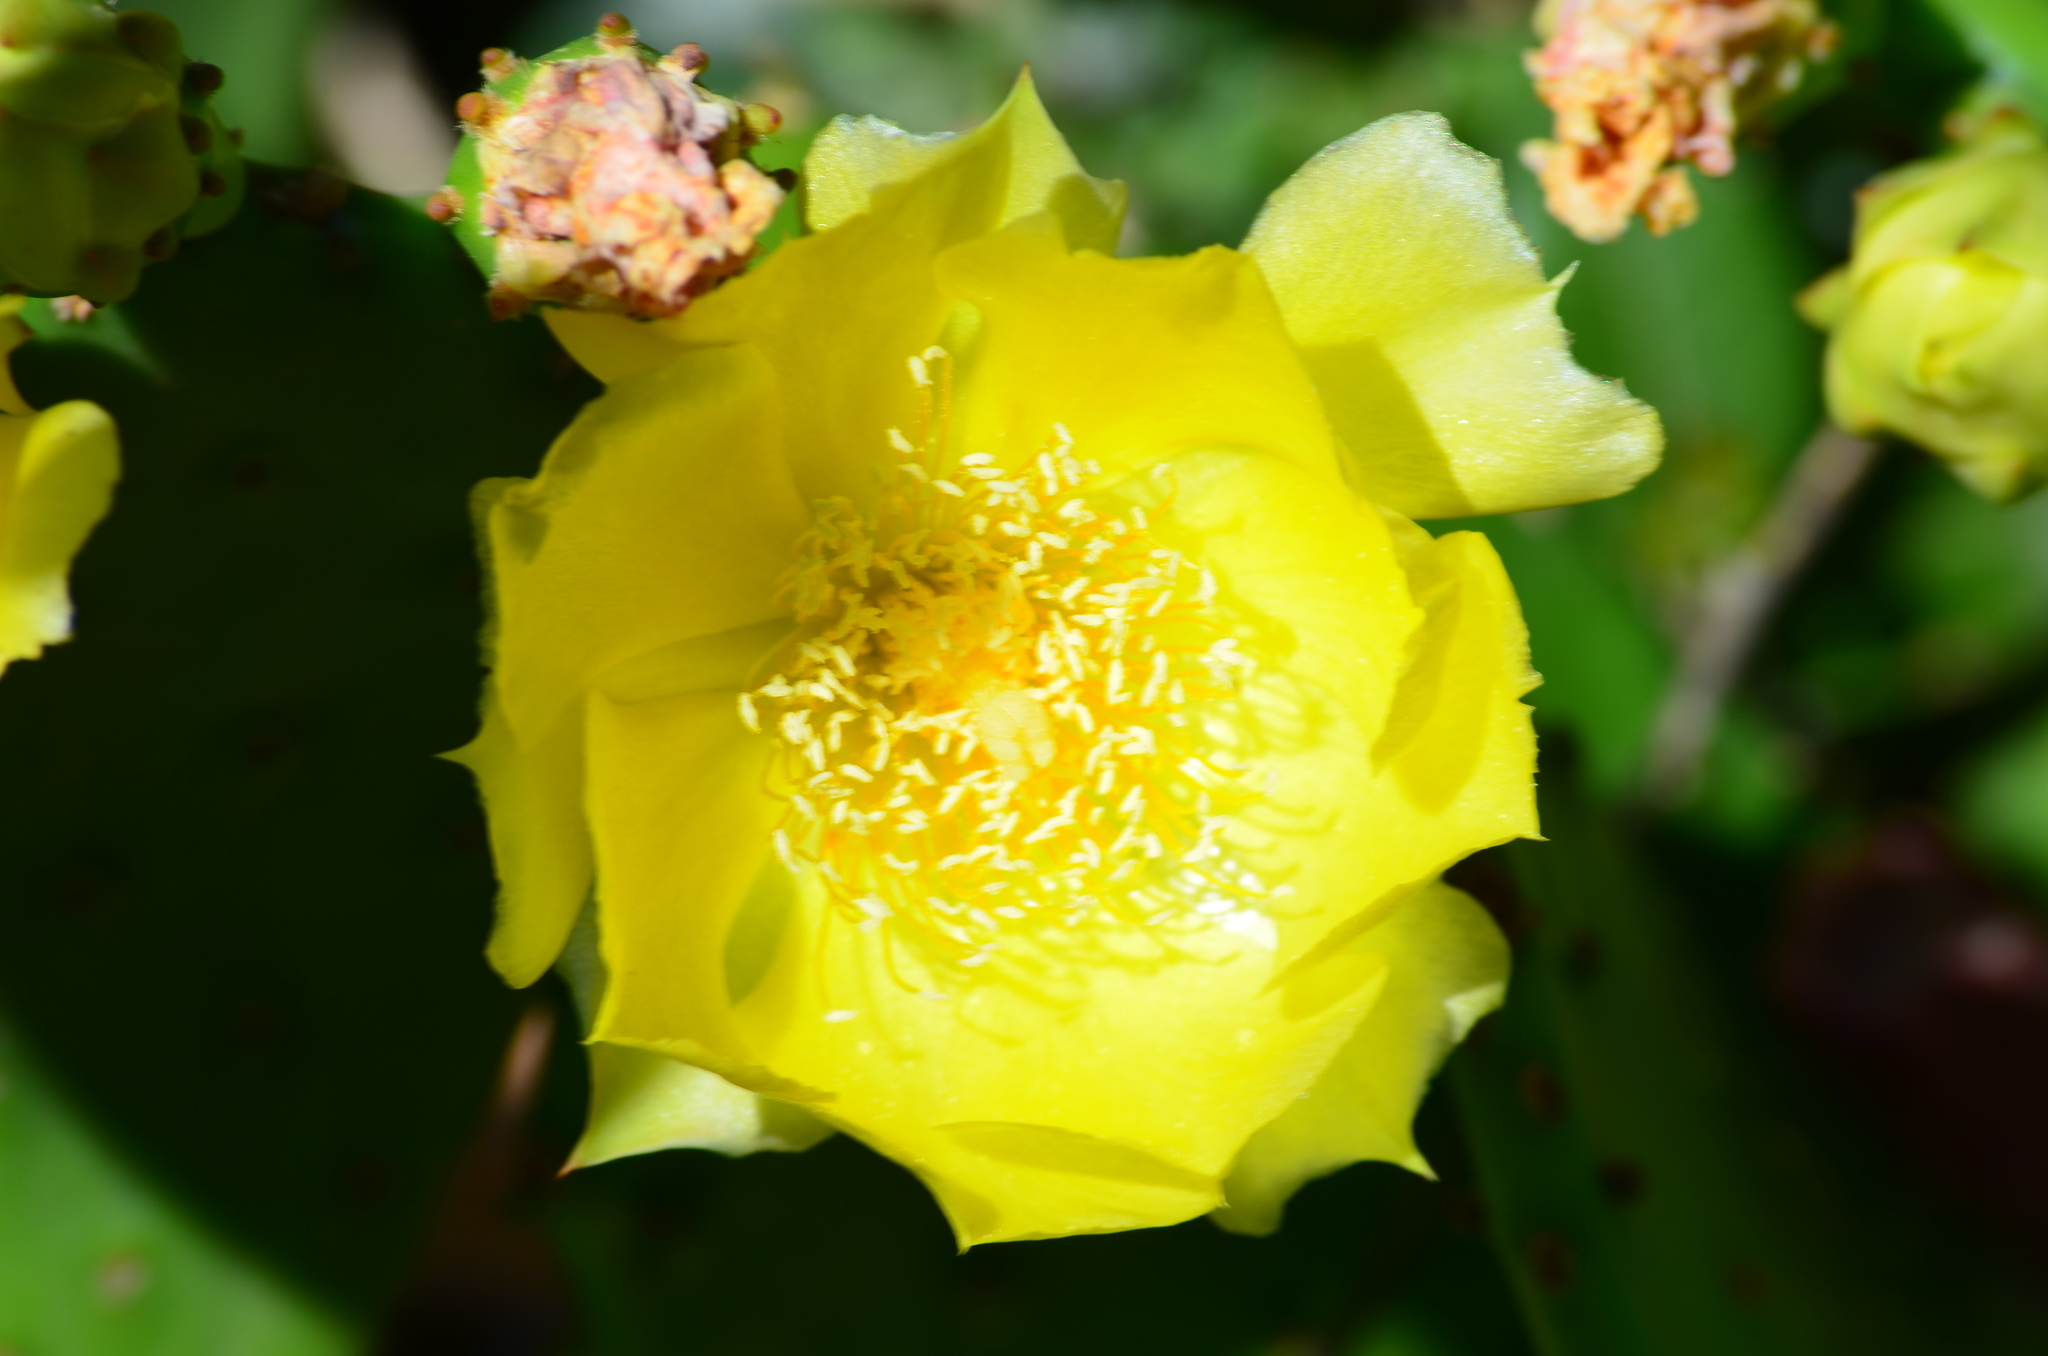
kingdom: Plantae
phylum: Tracheophyta
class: Magnoliopsida
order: Caryophyllales
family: Cactaceae
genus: Opuntia
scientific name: Opuntia humifusa
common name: Eastern prickly-pear
